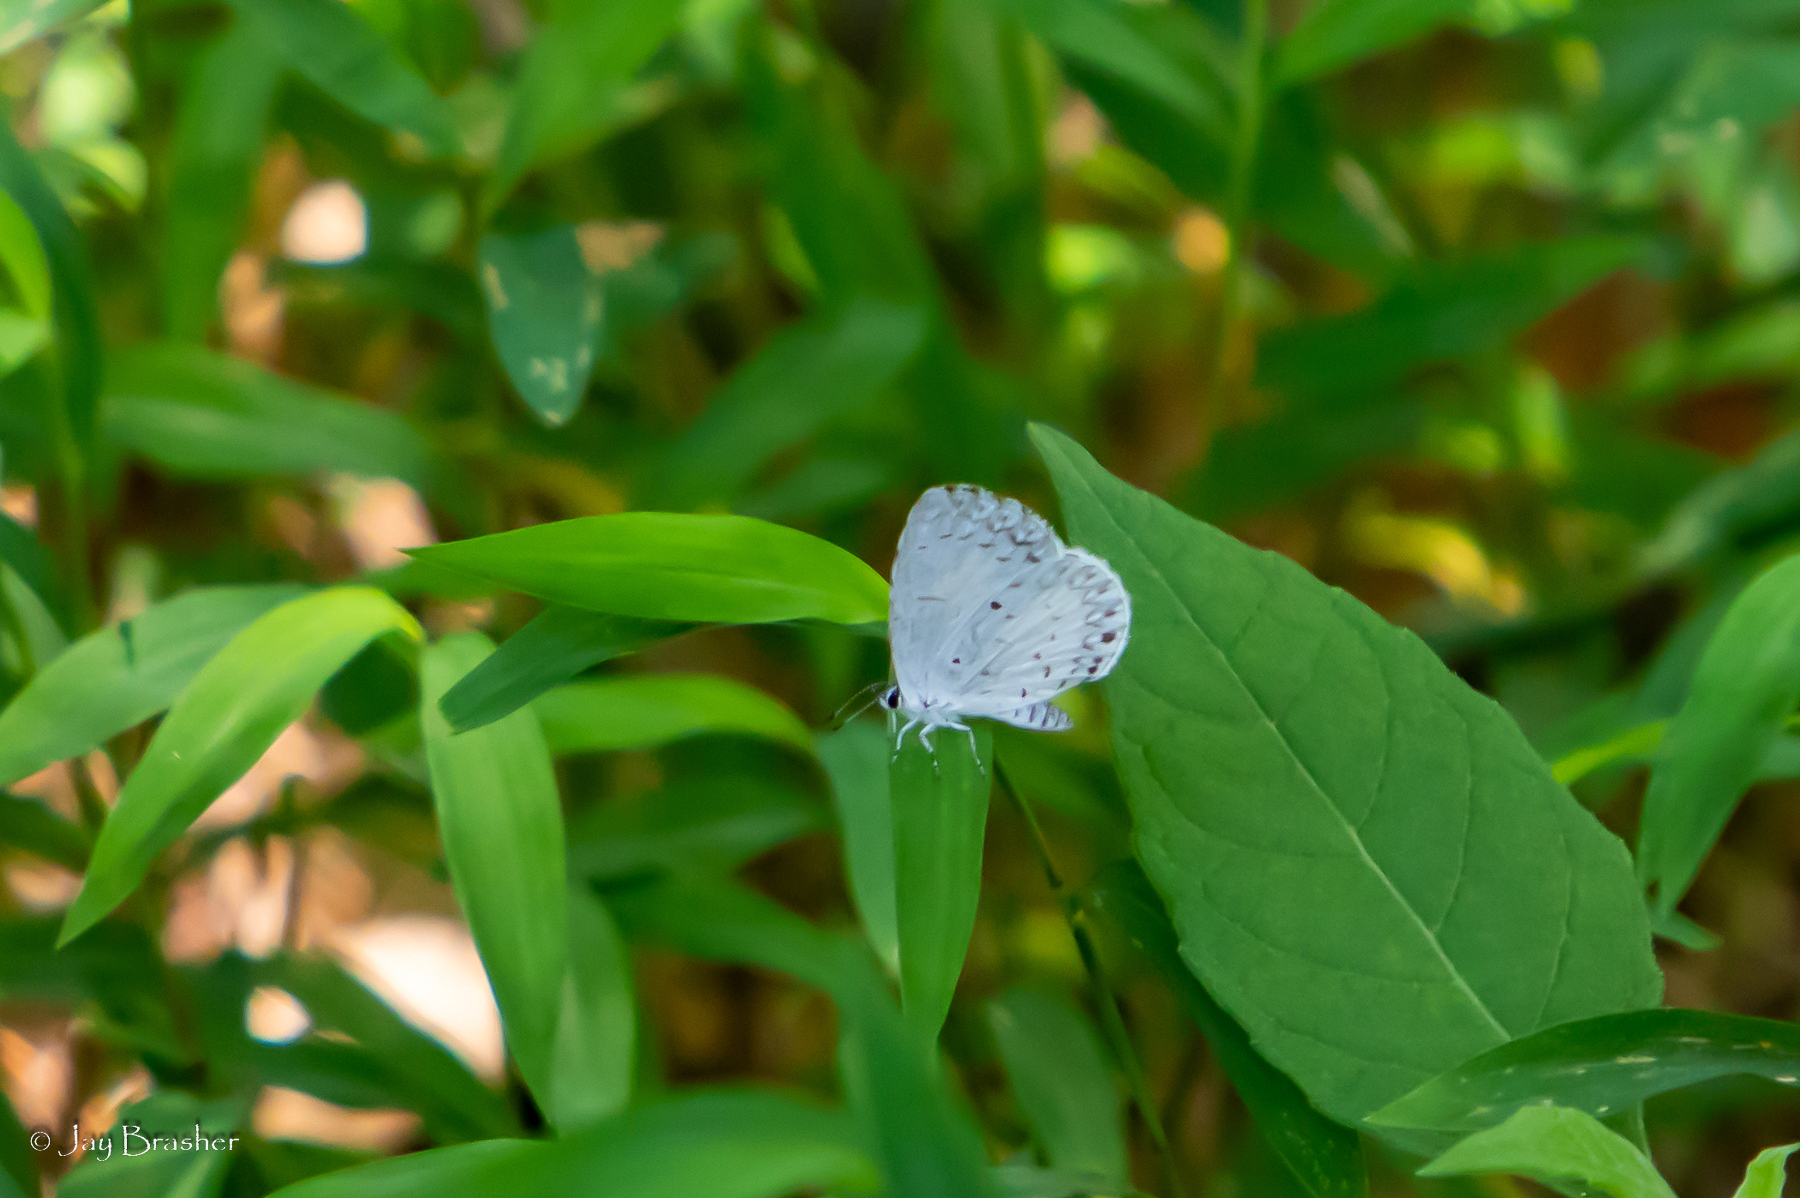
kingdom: Animalia
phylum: Arthropoda
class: Insecta
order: Lepidoptera
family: Lycaenidae
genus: Cyaniris
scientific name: Cyaniris neglecta
